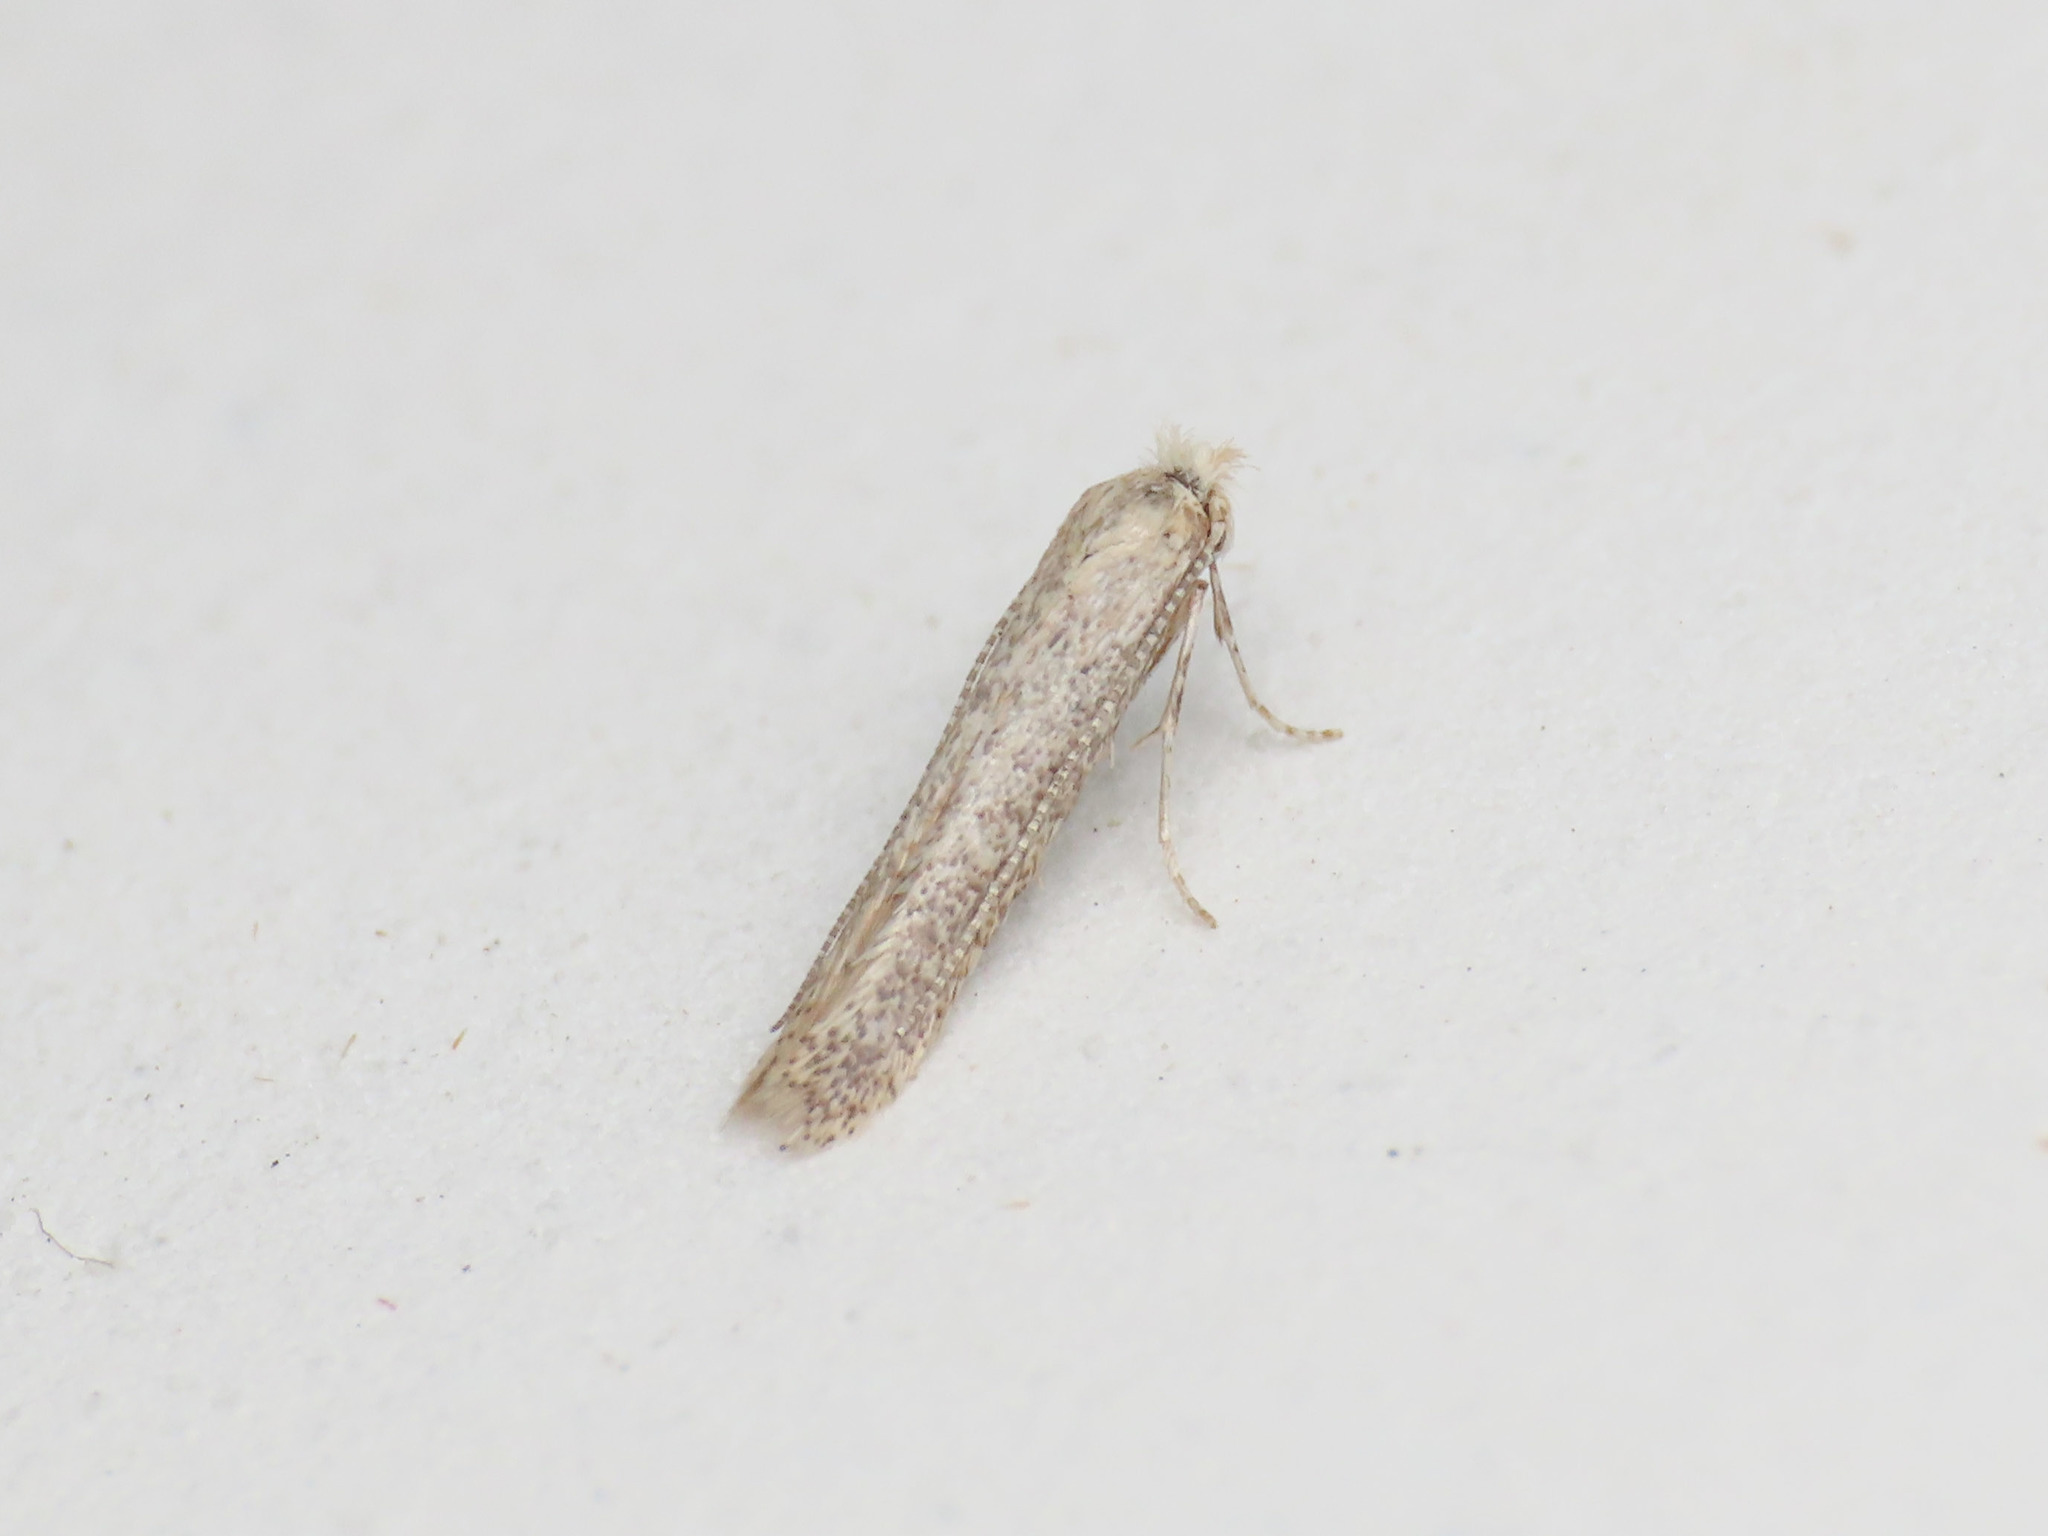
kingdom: Animalia
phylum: Arthropoda
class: Insecta
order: Lepidoptera
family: Bedelliidae
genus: Bedellia
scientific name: Bedellia somnulentella
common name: Morning-glory leafminer moth
